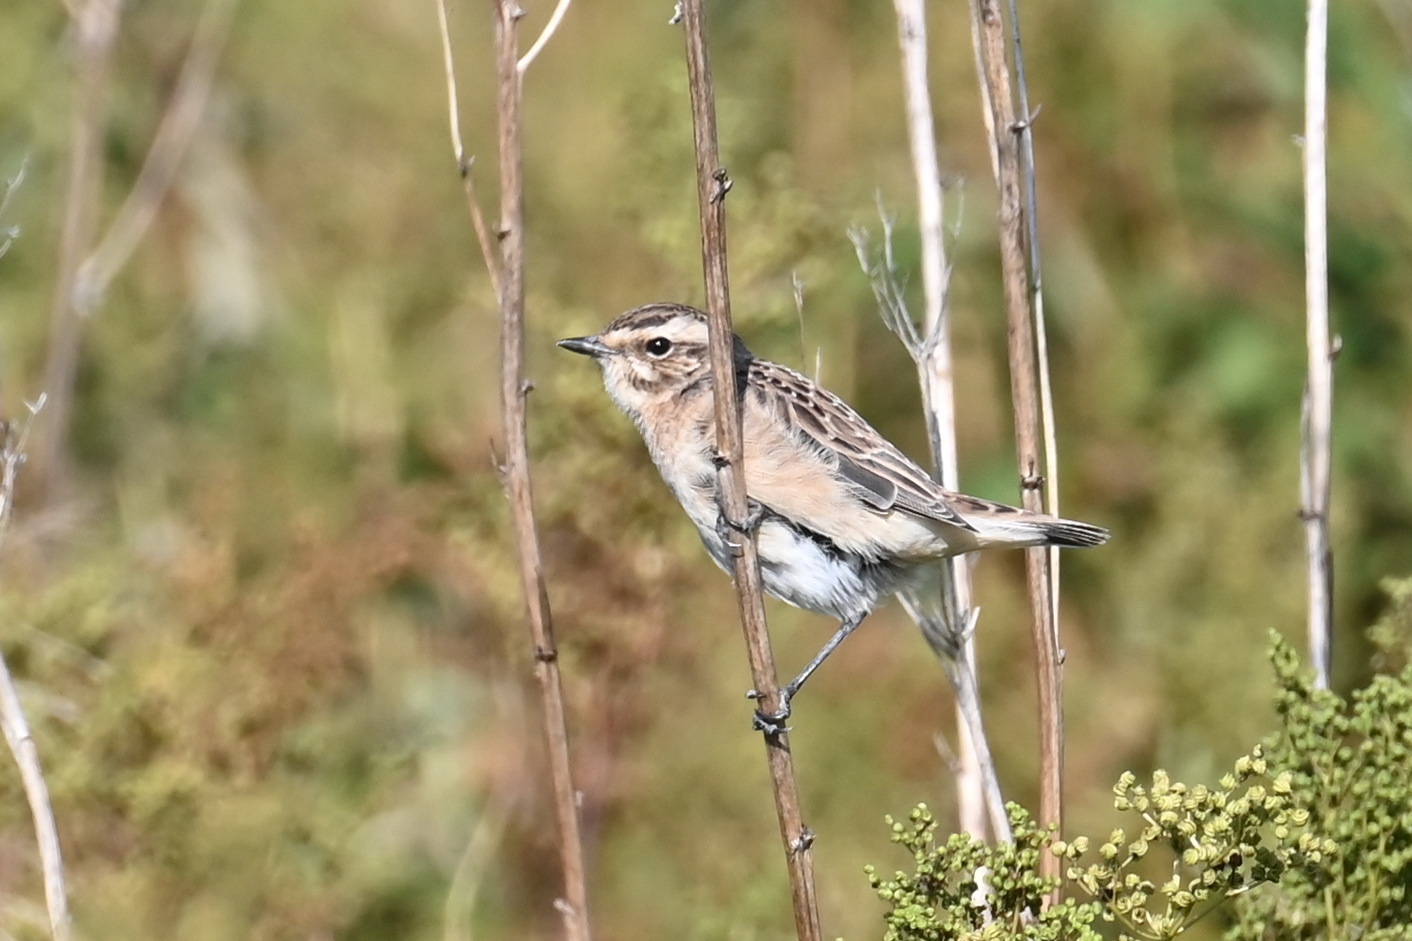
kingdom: Animalia
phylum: Chordata
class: Aves
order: Passeriformes
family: Muscicapidae
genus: Saxicola
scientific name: Saxicola rubetra
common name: Whinchat
